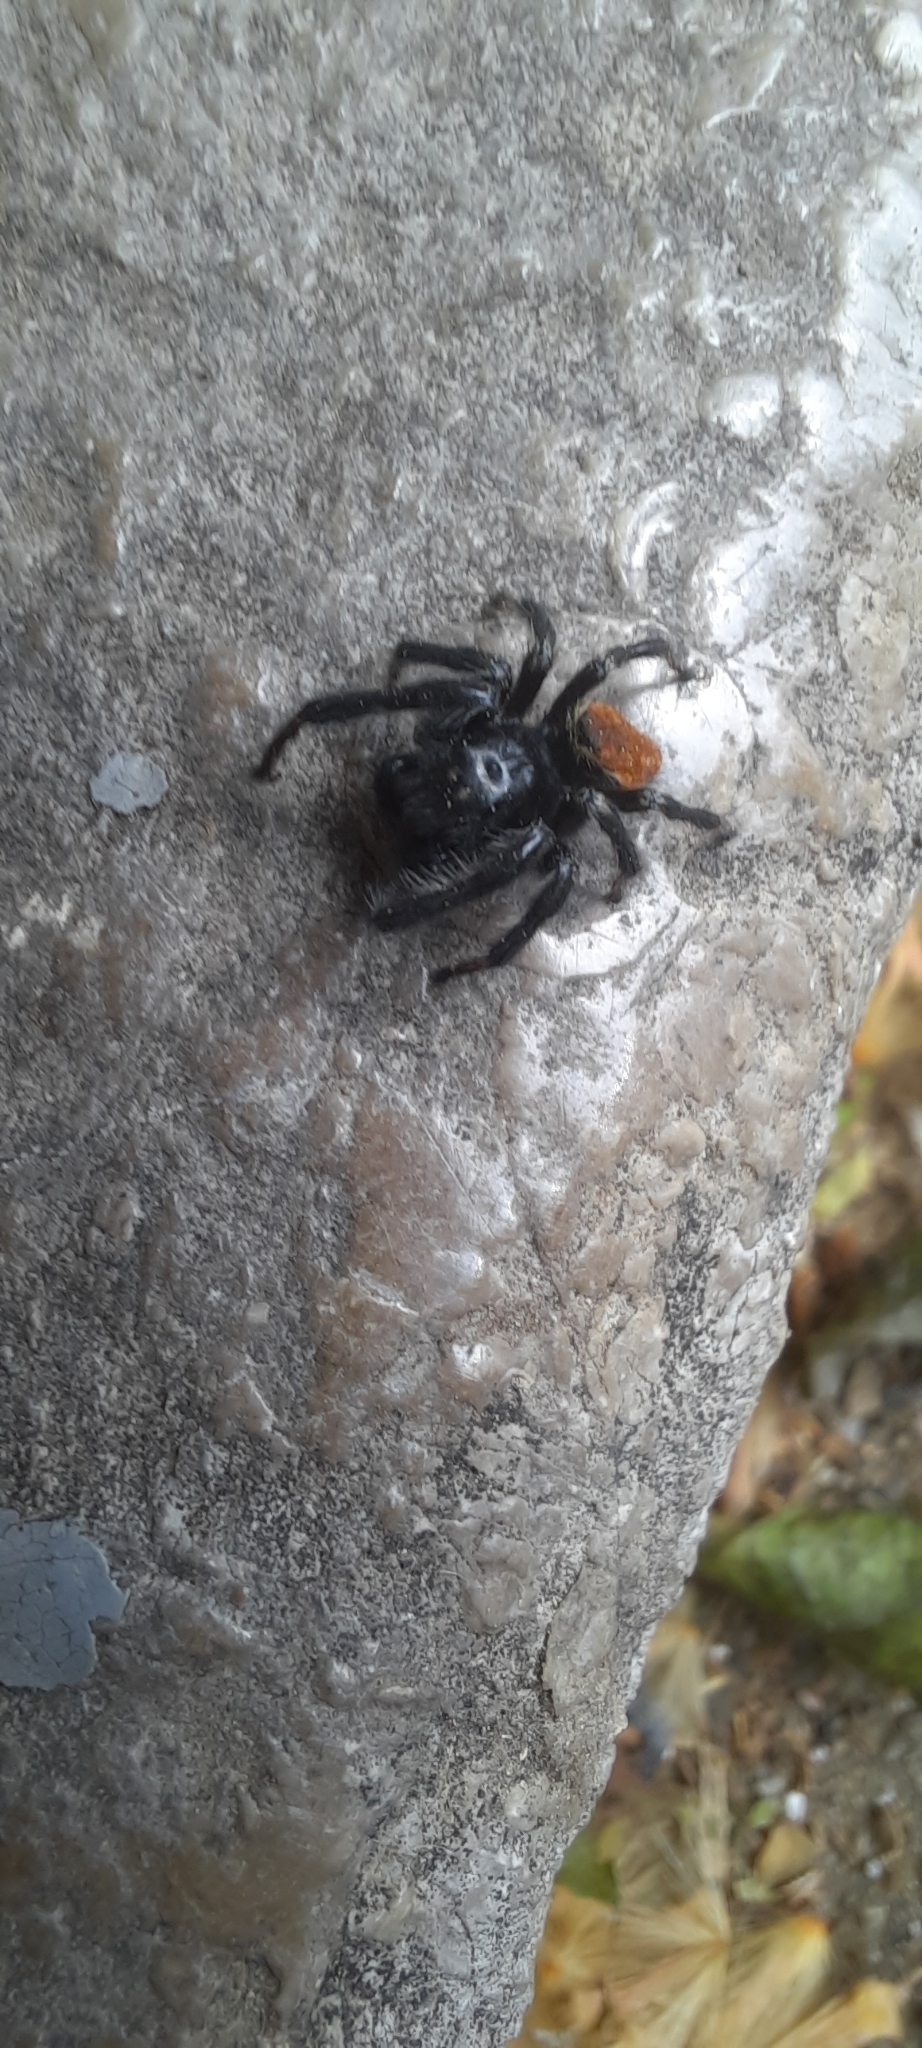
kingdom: Animalia
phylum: Arthropoda
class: Arachnida
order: Araneae
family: Salticidae
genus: Carrhotus
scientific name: Carrhotus xanthogramma
